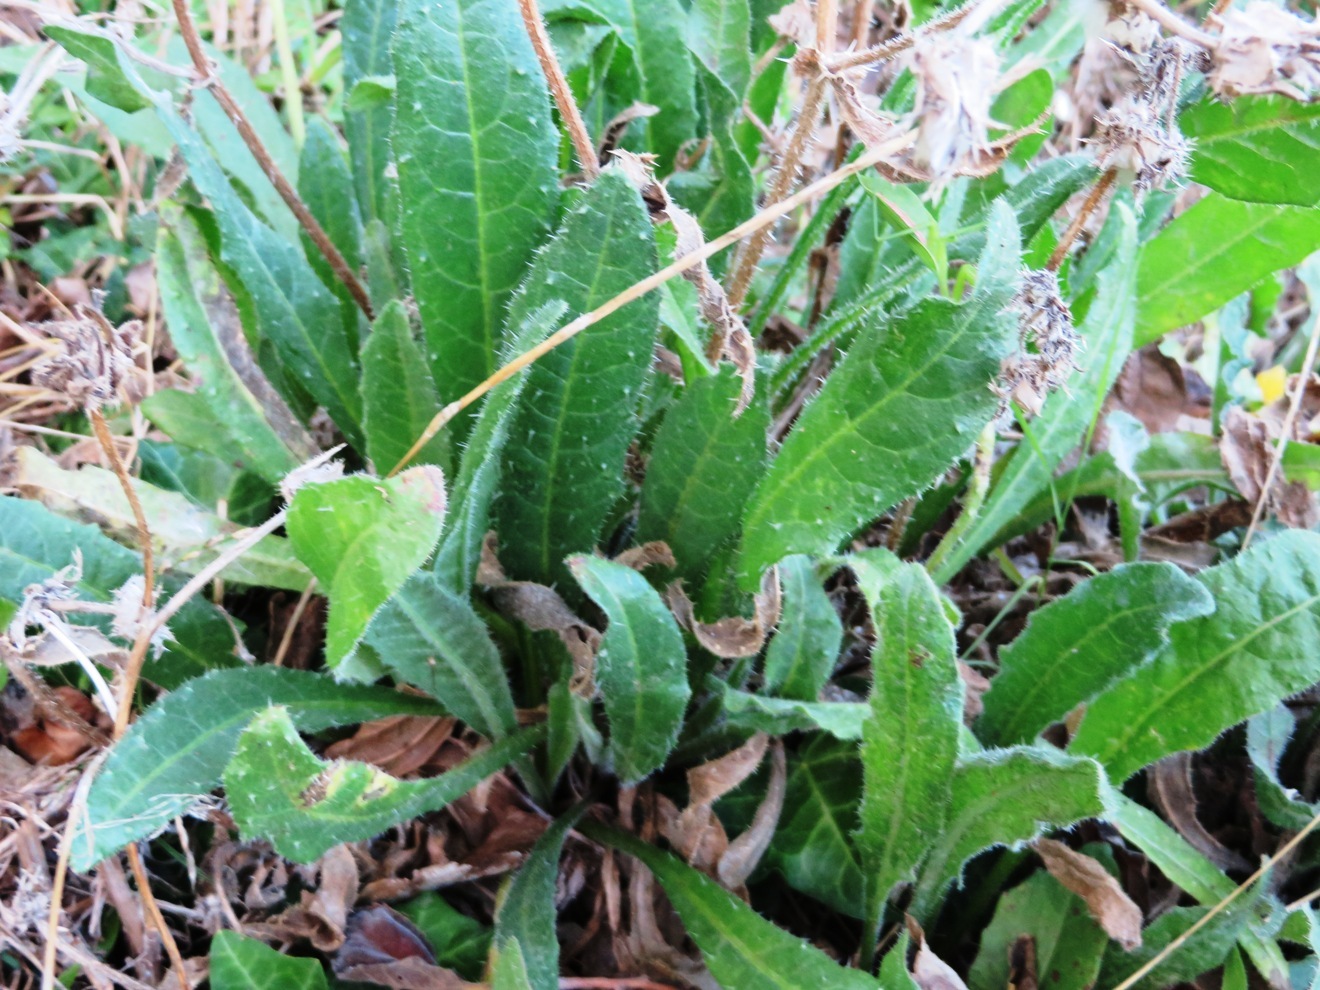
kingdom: Plantae
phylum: Tracheophyta
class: Magnoliopsida
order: Asterales
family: Asteraceae
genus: Helminthotheca
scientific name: Helminthotheca echioides
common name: Ox-tongue
